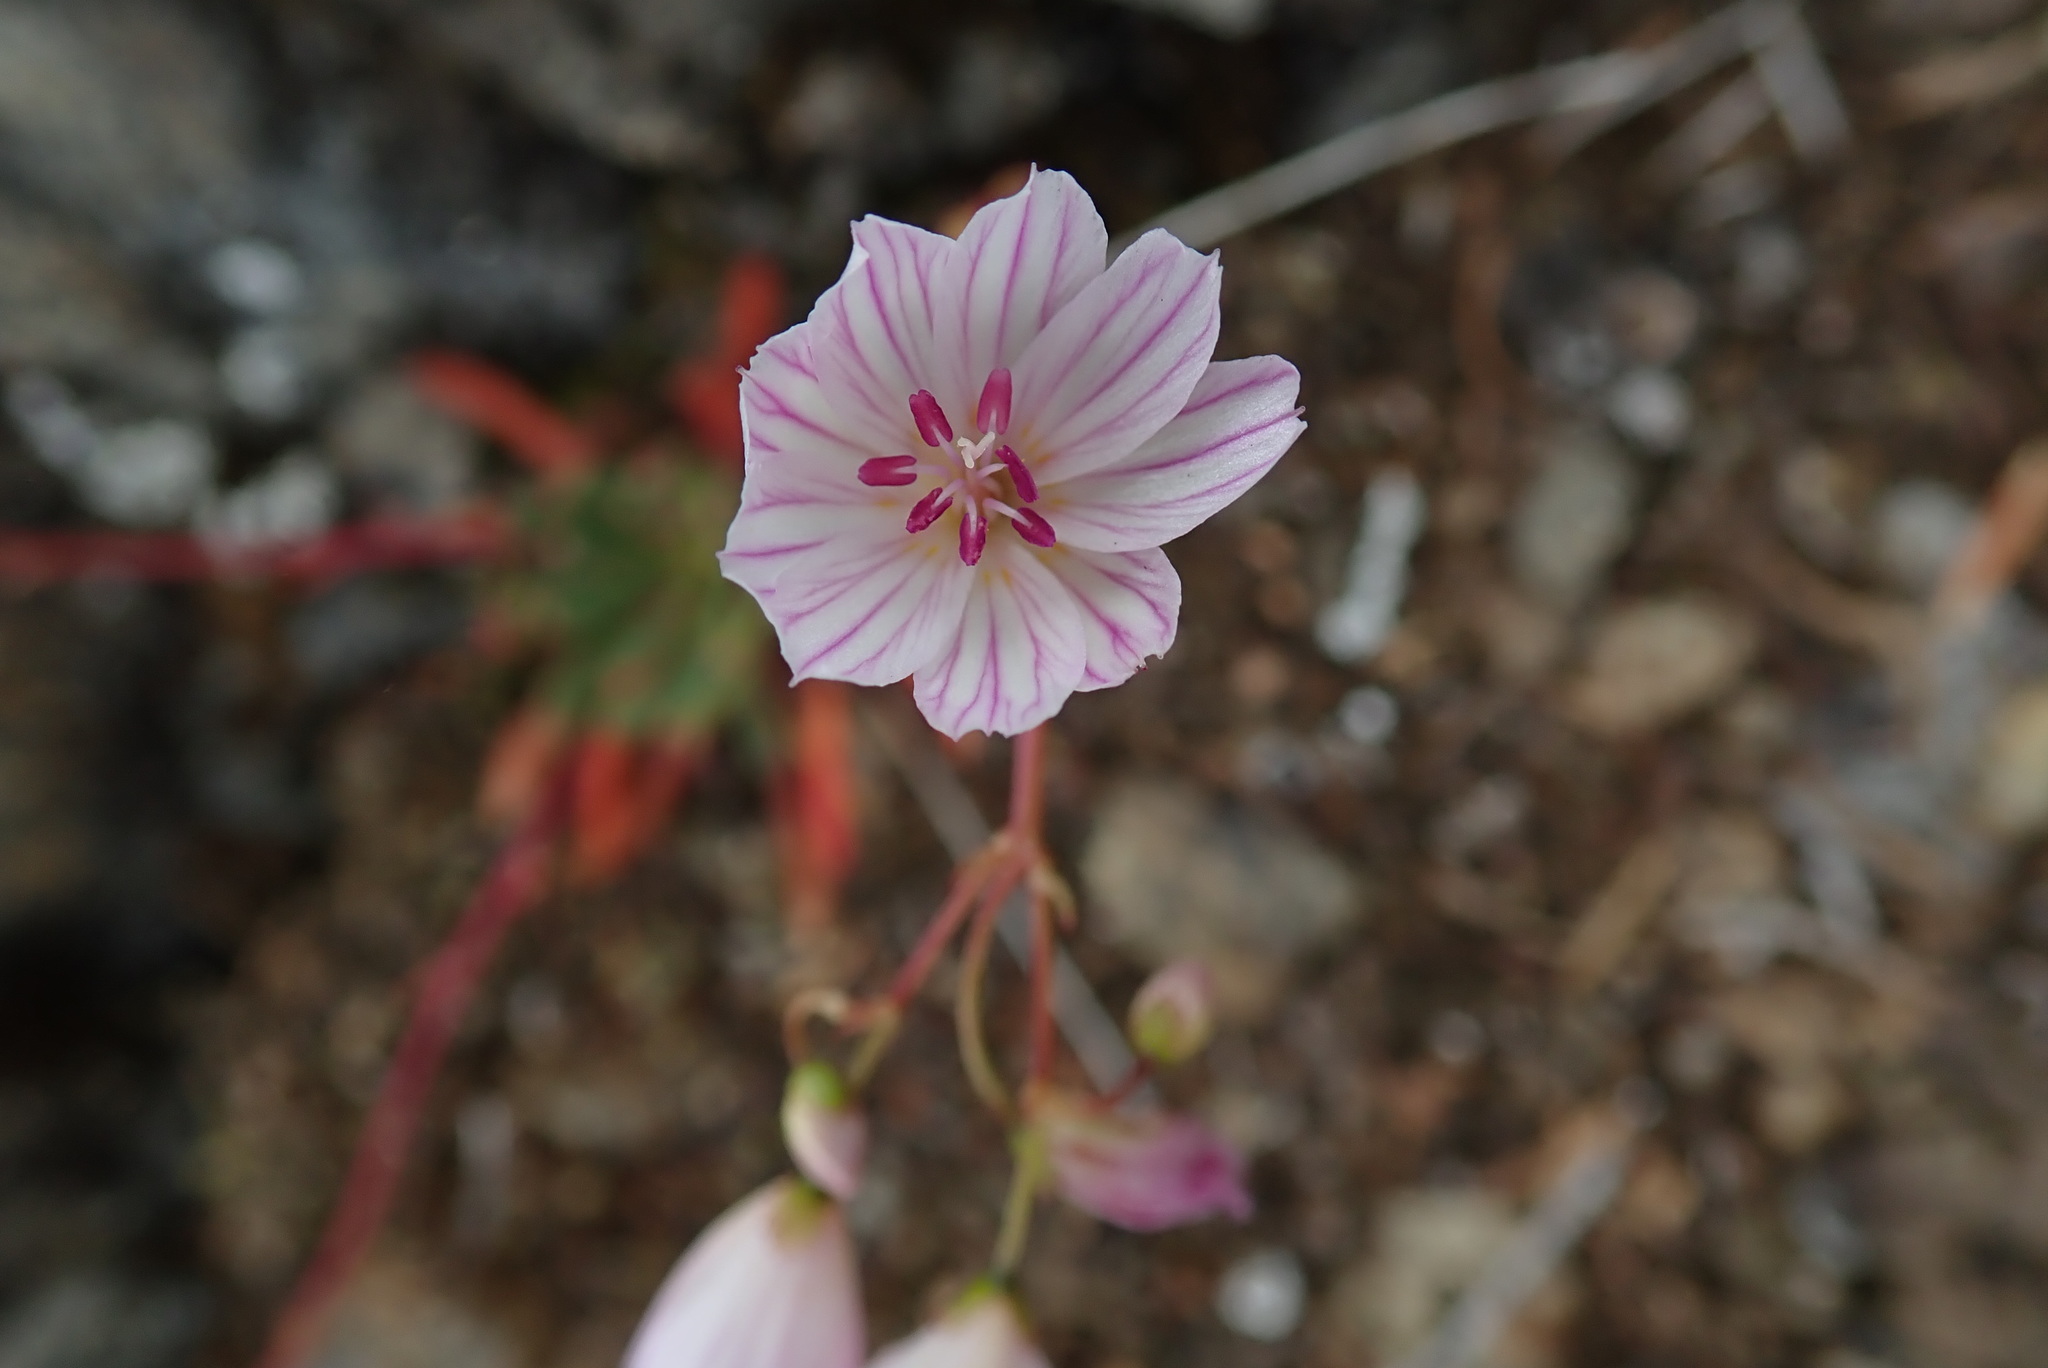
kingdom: Plantae
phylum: Tracheophyta
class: Magnoliopsida
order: Caryophyllales
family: Montiaceae
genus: Lewisia
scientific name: Lewisia columbiana
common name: Columbia lewisia
